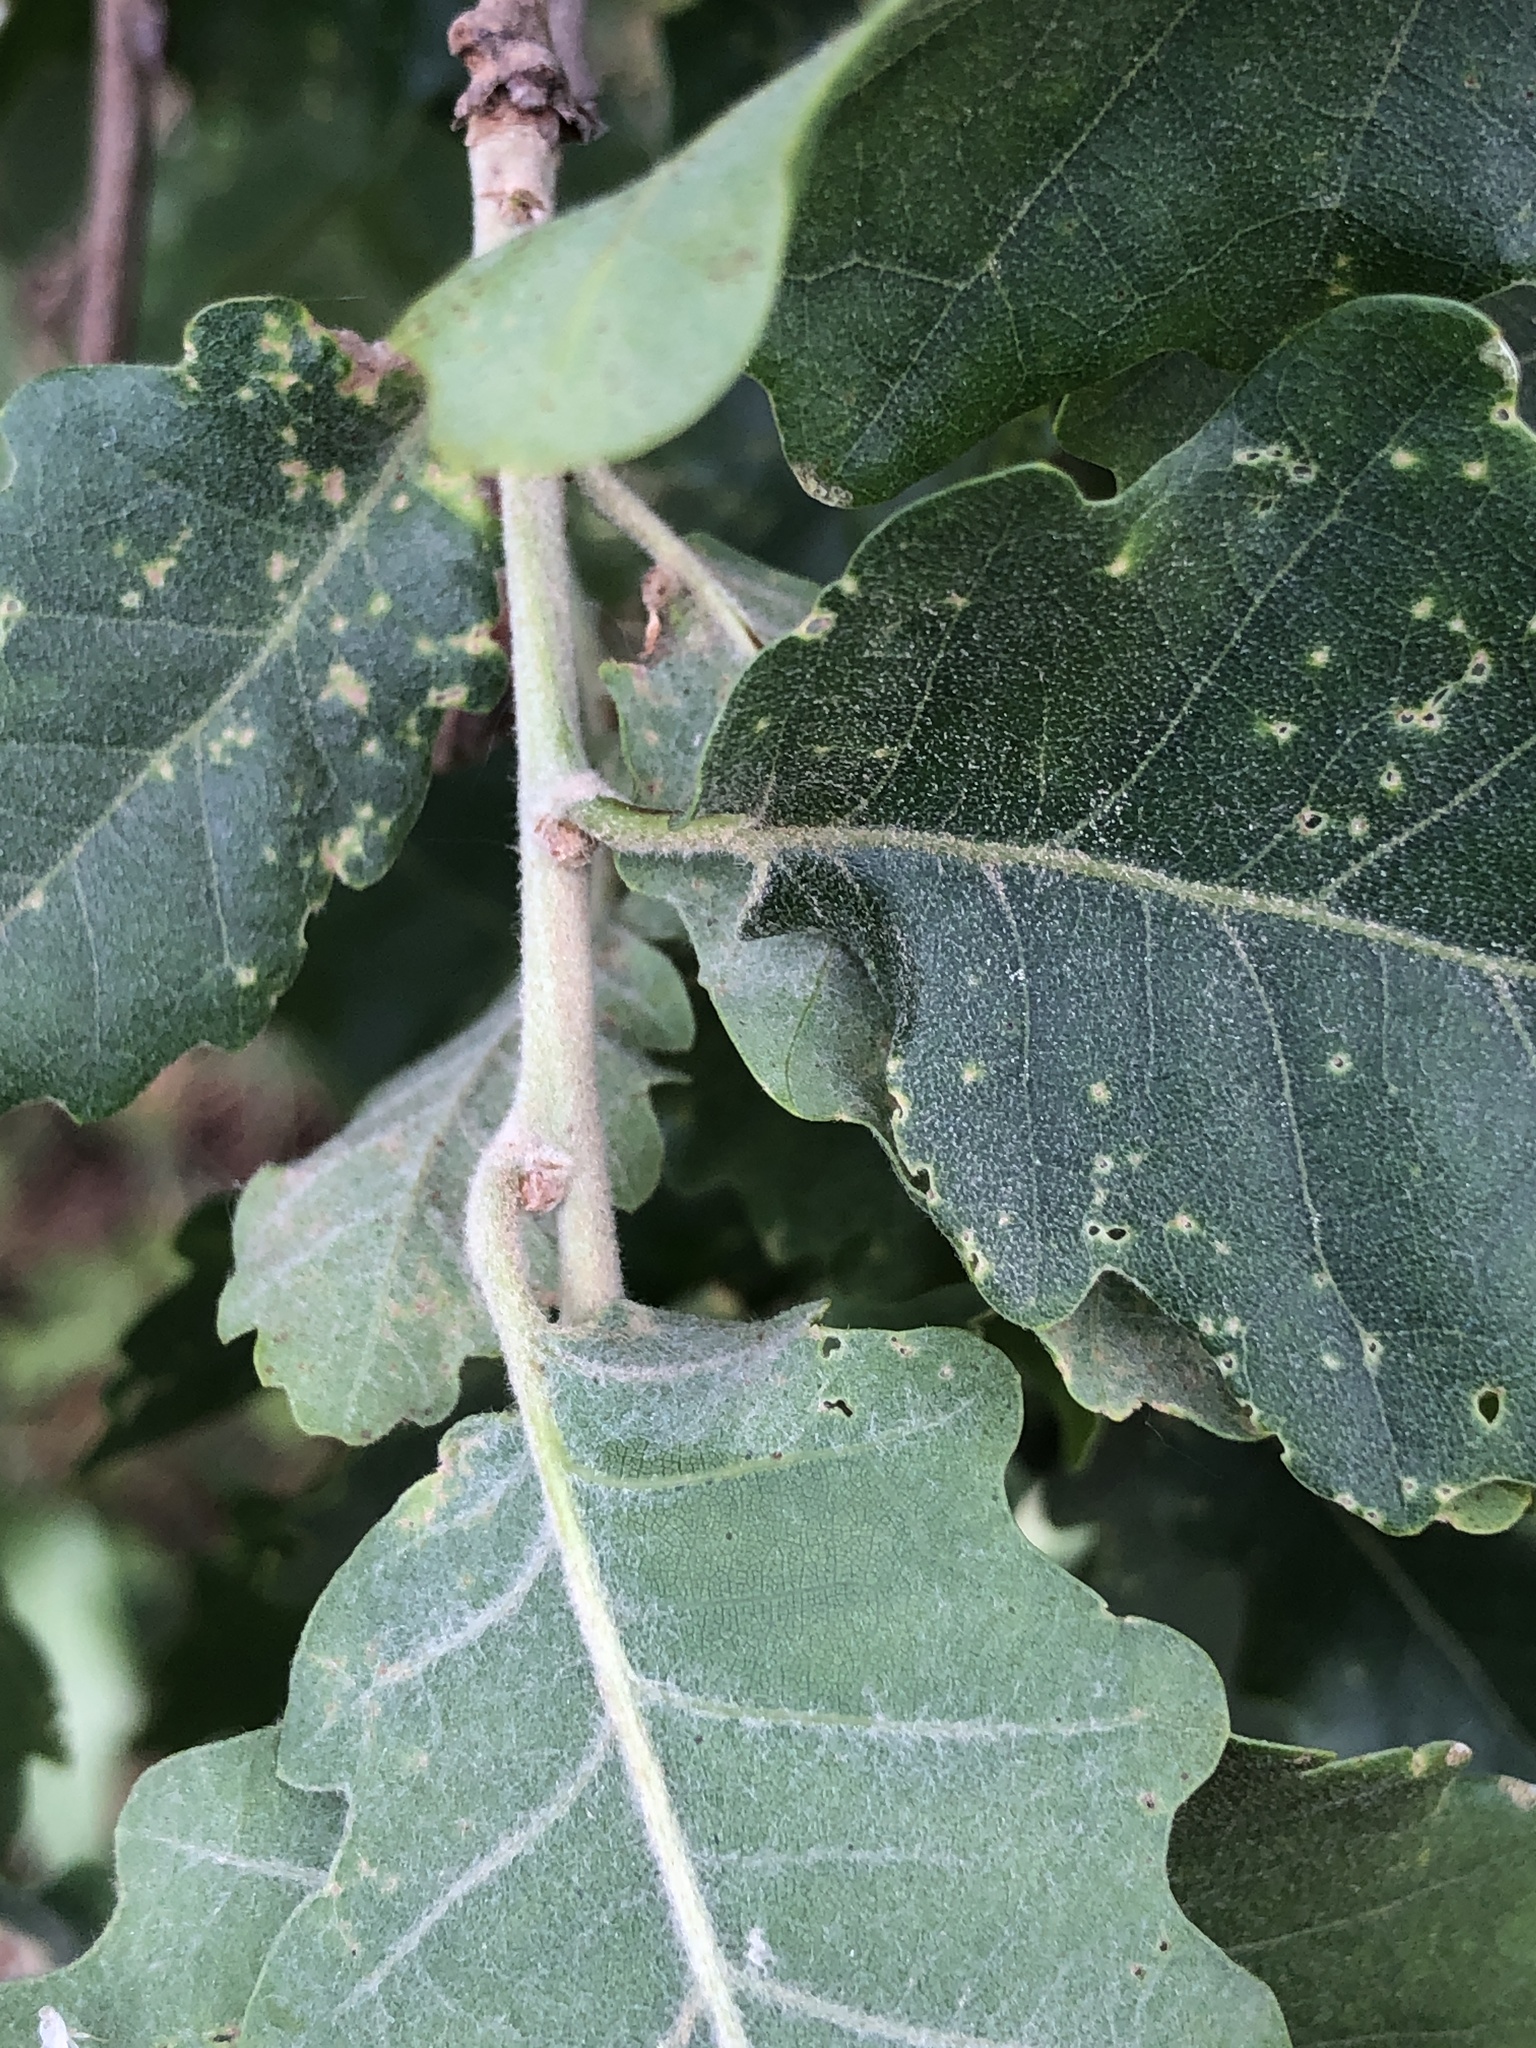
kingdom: Plantae
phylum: Tracheophyta
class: Magnoliopsida
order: Fagales
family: Fagaceae
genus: Quercus
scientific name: Quercus pubescens
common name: Downy oak
